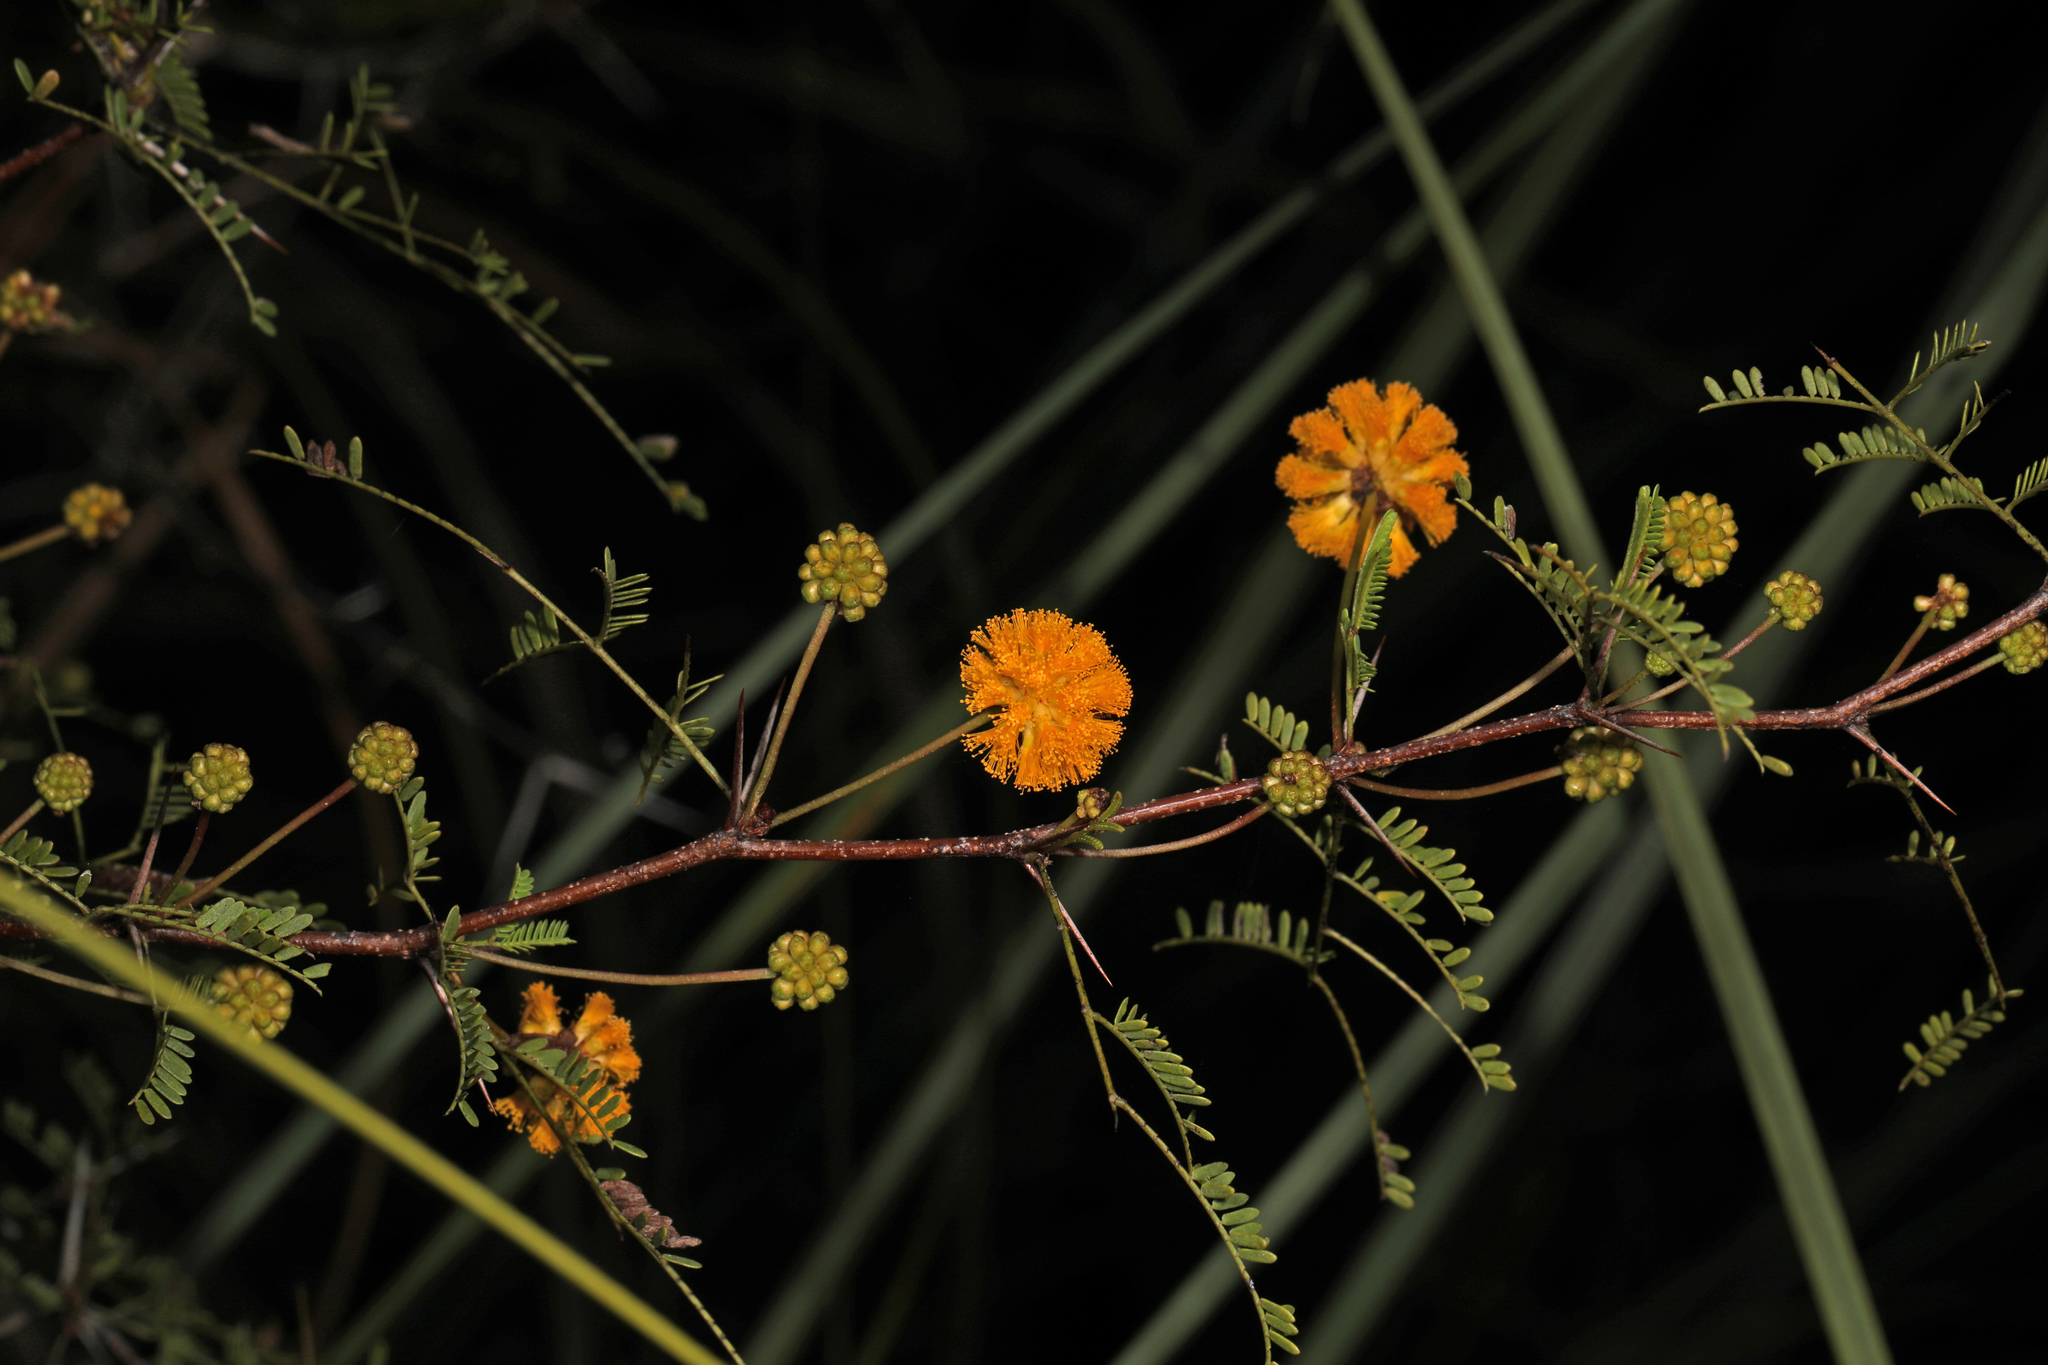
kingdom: Plantae
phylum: Tracheophyta
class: Magnoliopsida
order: Fabales
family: Fabaceae
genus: Vachellia
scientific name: Vachellia farnesiana
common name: Sweet acacia
